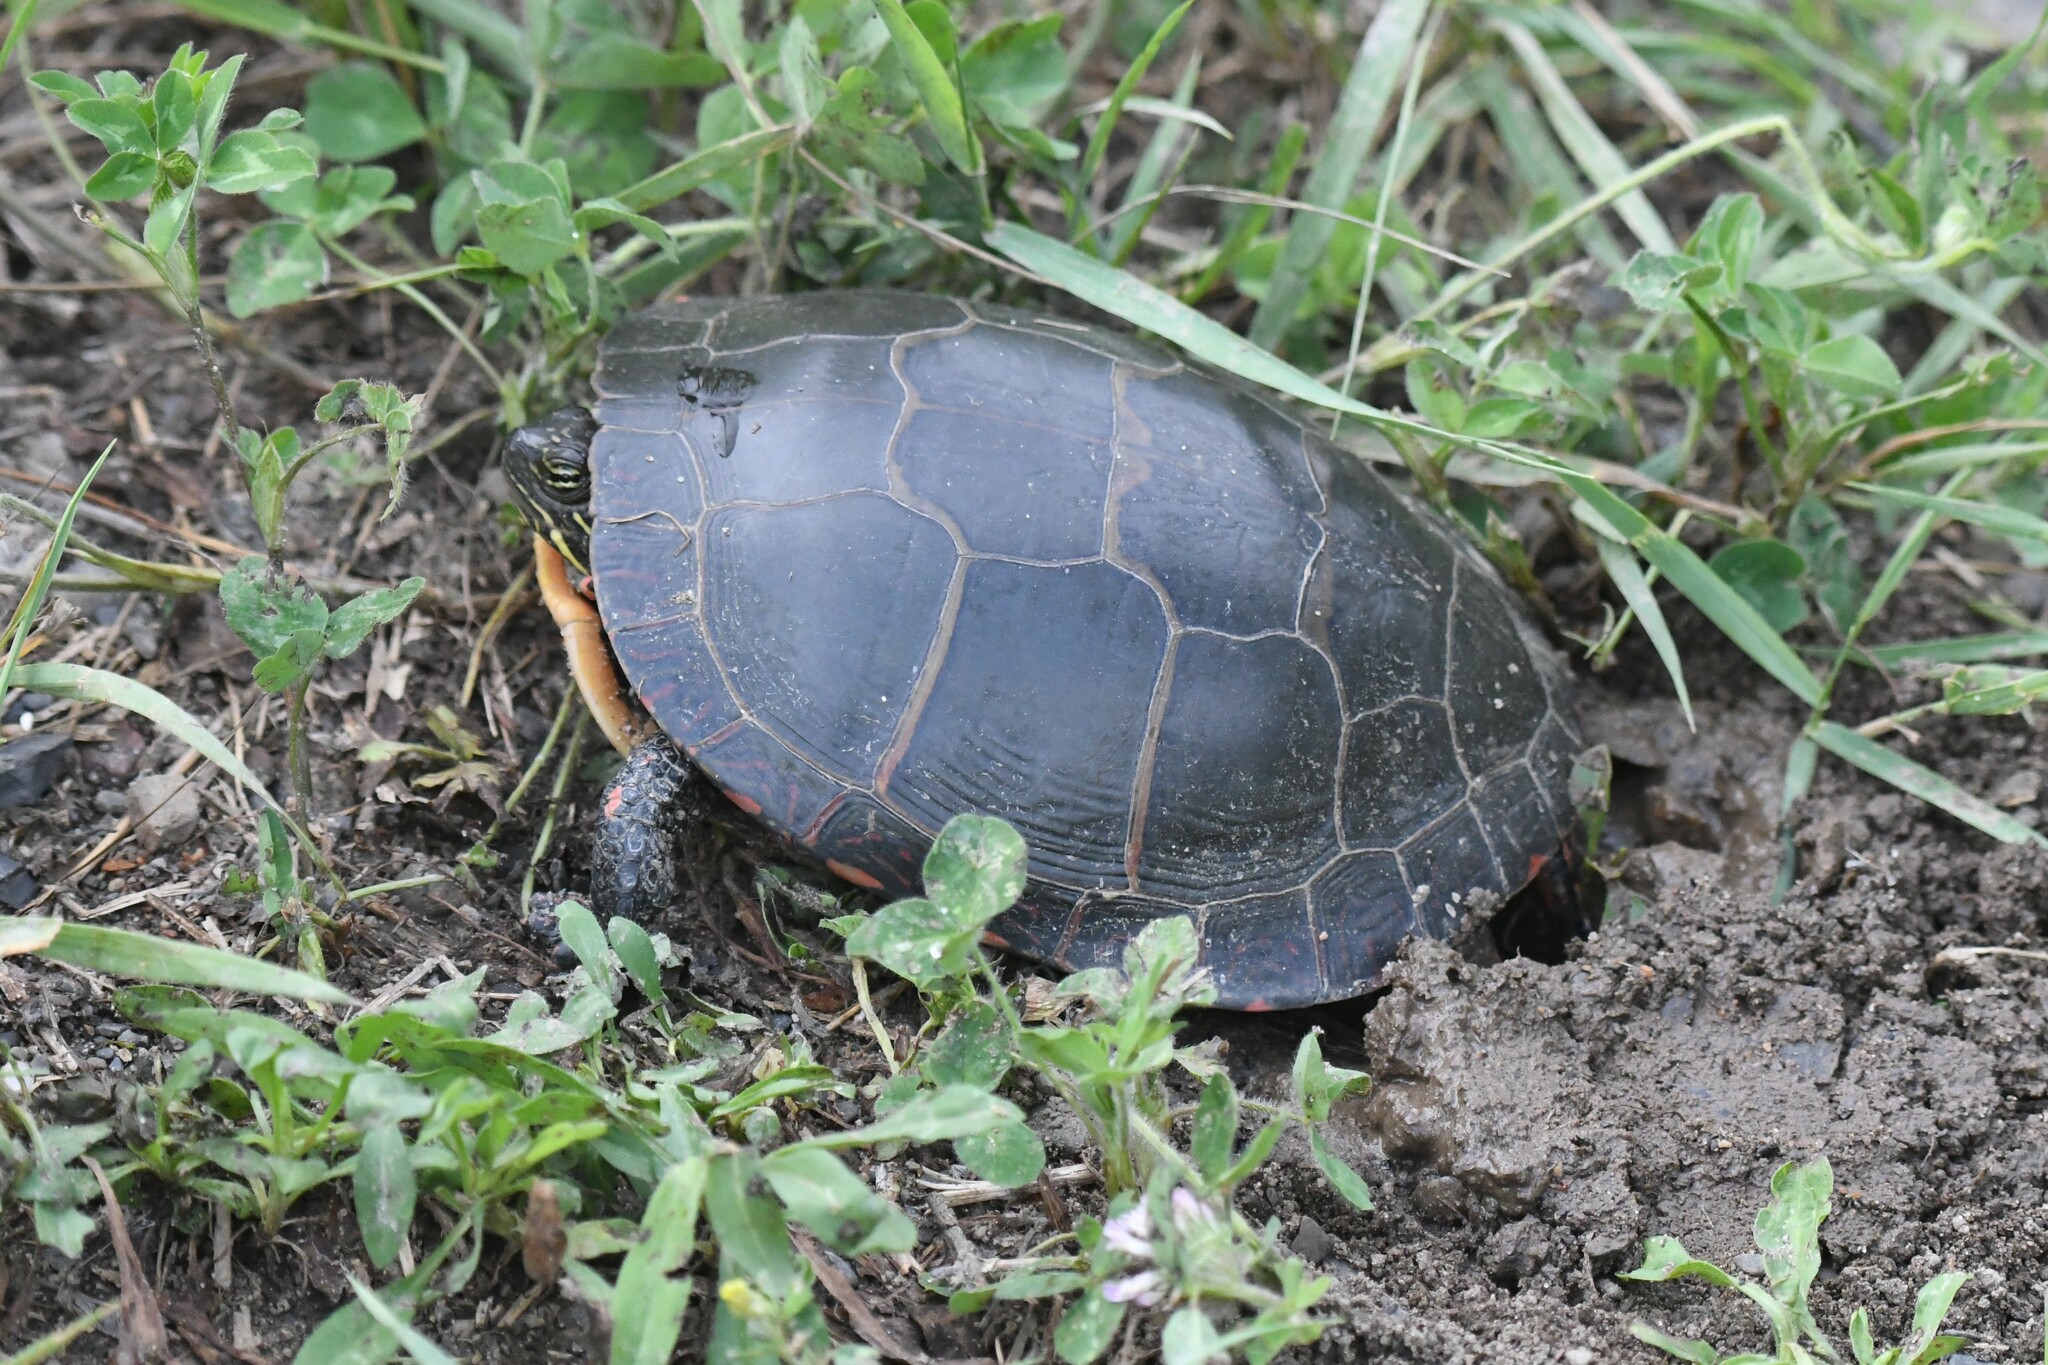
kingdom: Animalia
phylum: Chordata
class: Testudines
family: Emydidae
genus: Chrysemys
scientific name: Chrysemys picta
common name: Painted turtle
